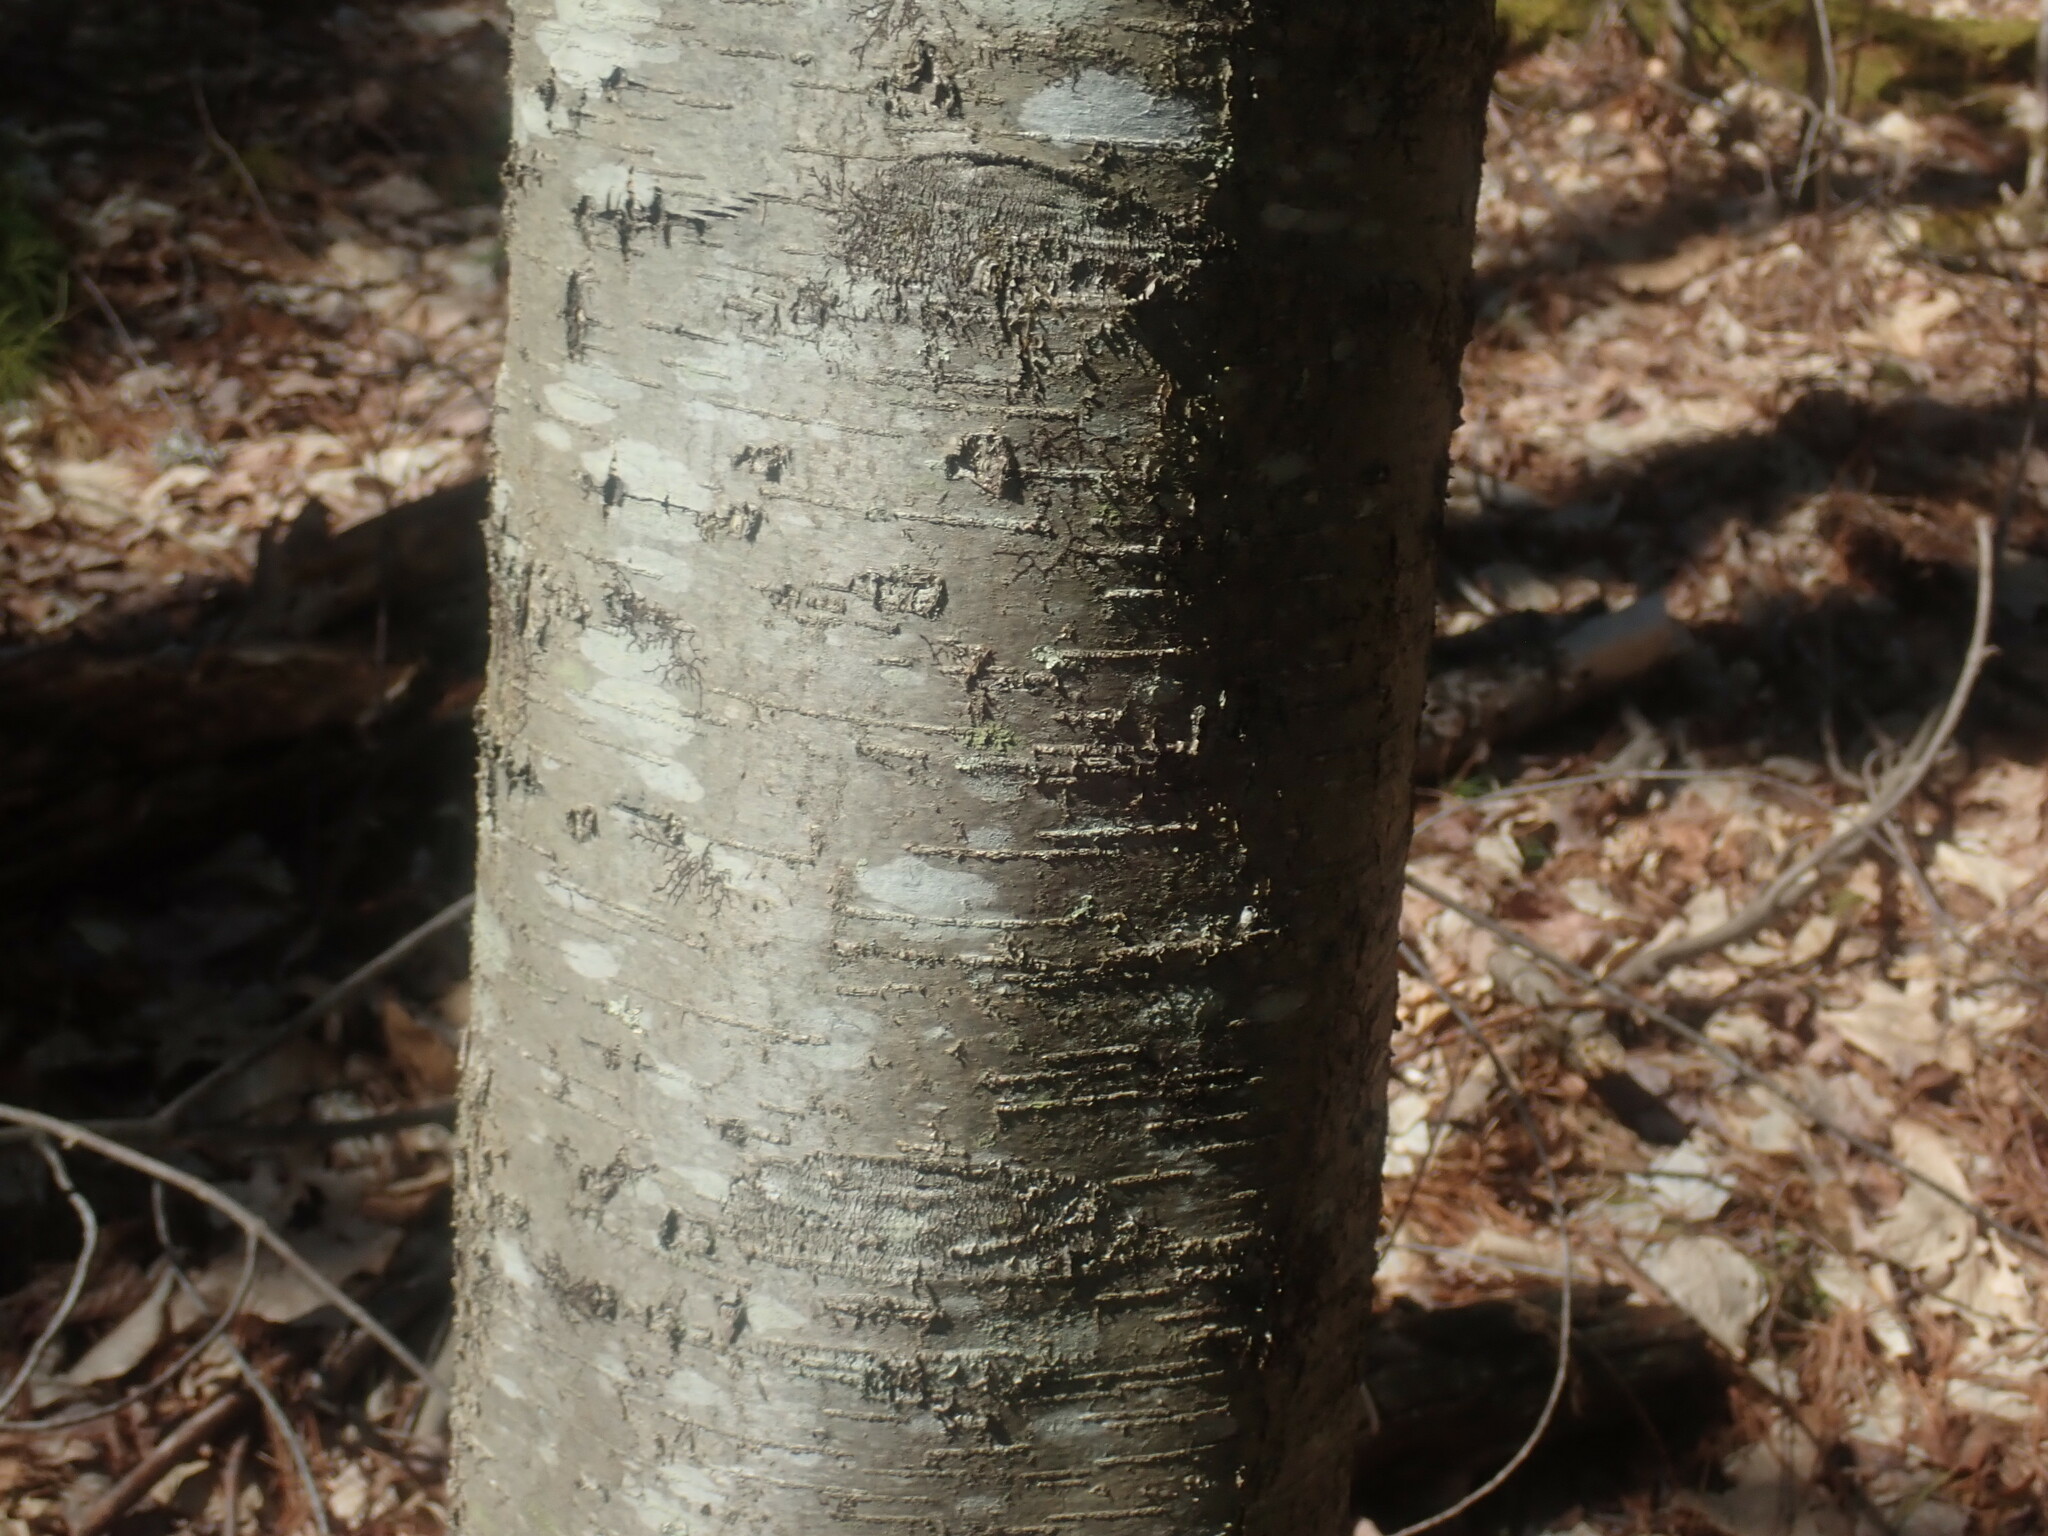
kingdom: Plantae
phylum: Tracheophyta
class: Magnoliopsida
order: Fagales
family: Betulaceae
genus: Betula
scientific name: Betula lenta
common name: Black birch
